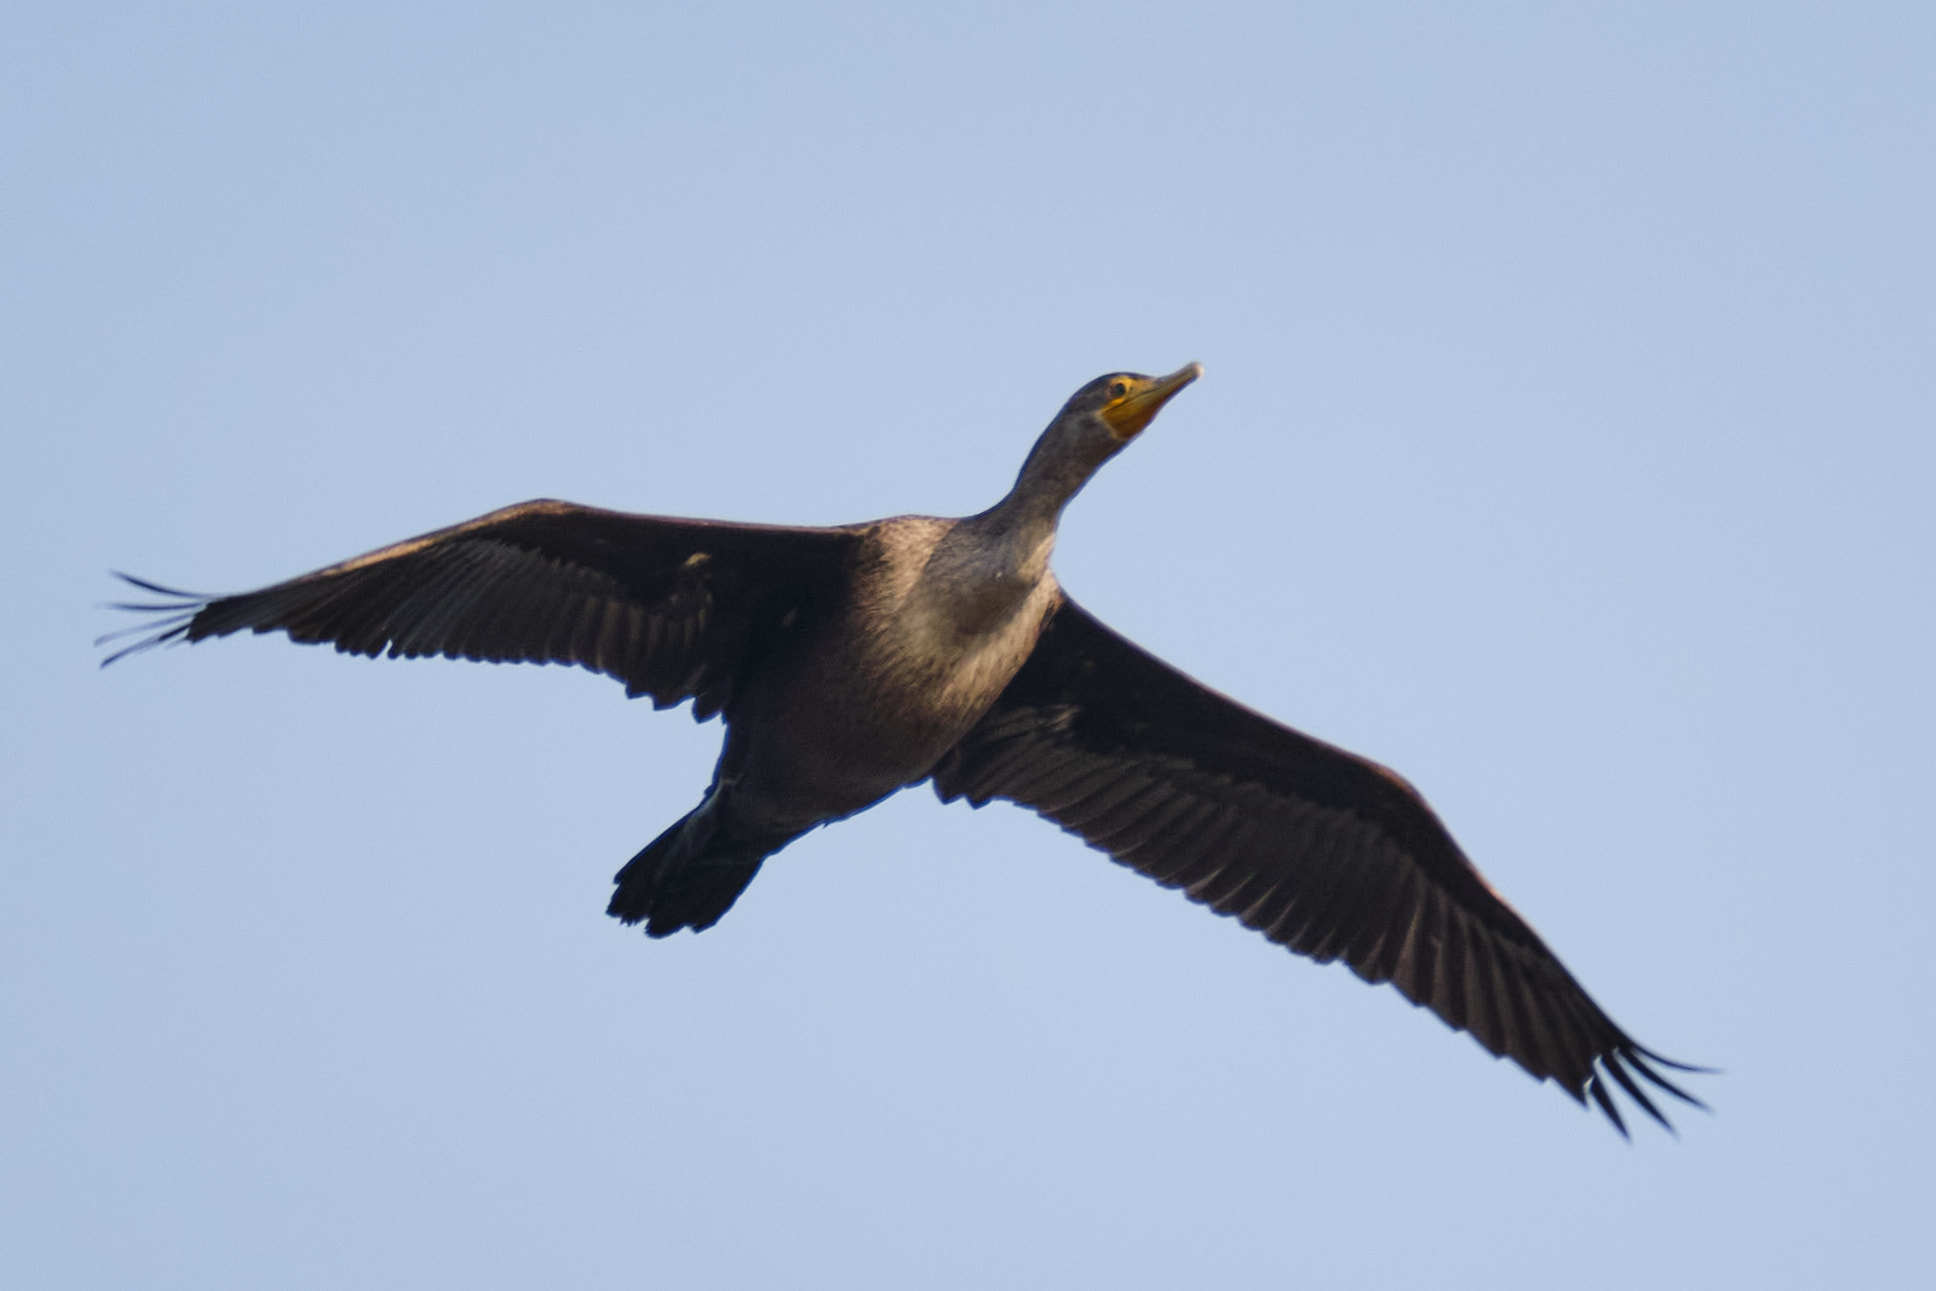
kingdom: Animalia
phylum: Chordata
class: Aves
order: Suliformes
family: Phalacrocoracidae
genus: Phalacrocorax
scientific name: Phalacrocorax auritus
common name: Double-crested cormorant
